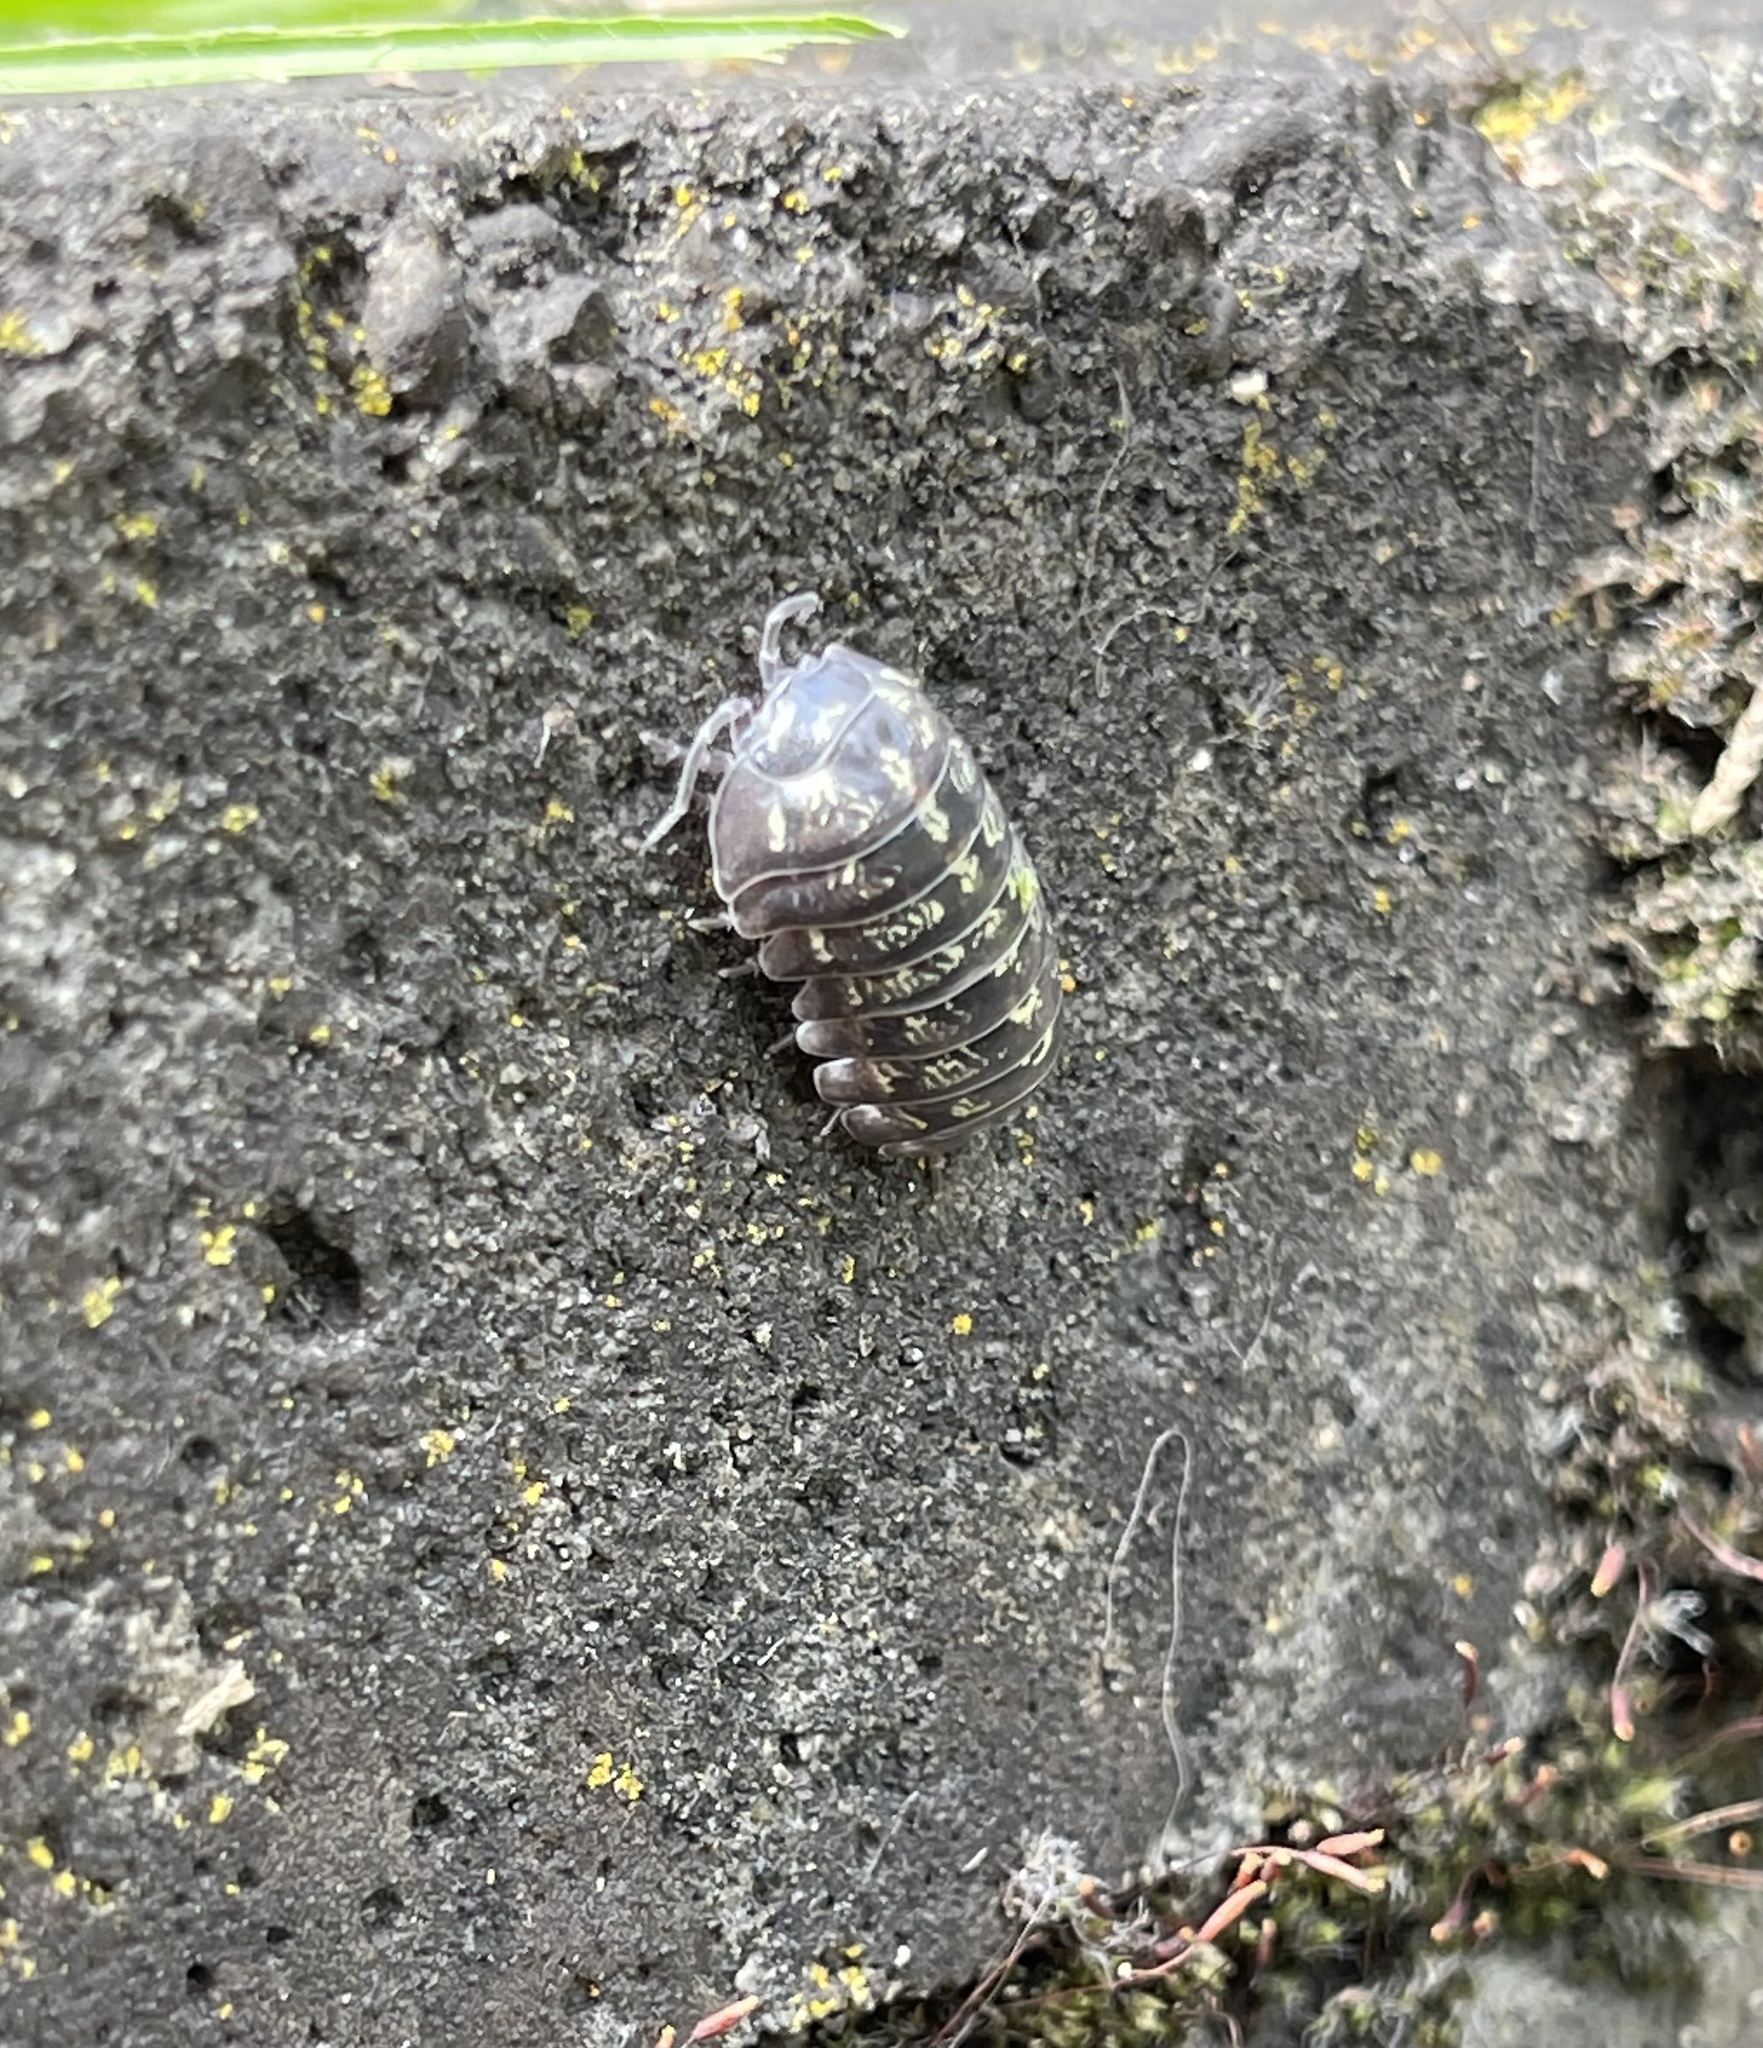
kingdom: Animalia
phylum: Arthropoda
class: Malacostraca
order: Isopoda
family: Armadillidiidae
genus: Armadillidium
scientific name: Armadillidium vulgare
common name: Common pill woodlouse
